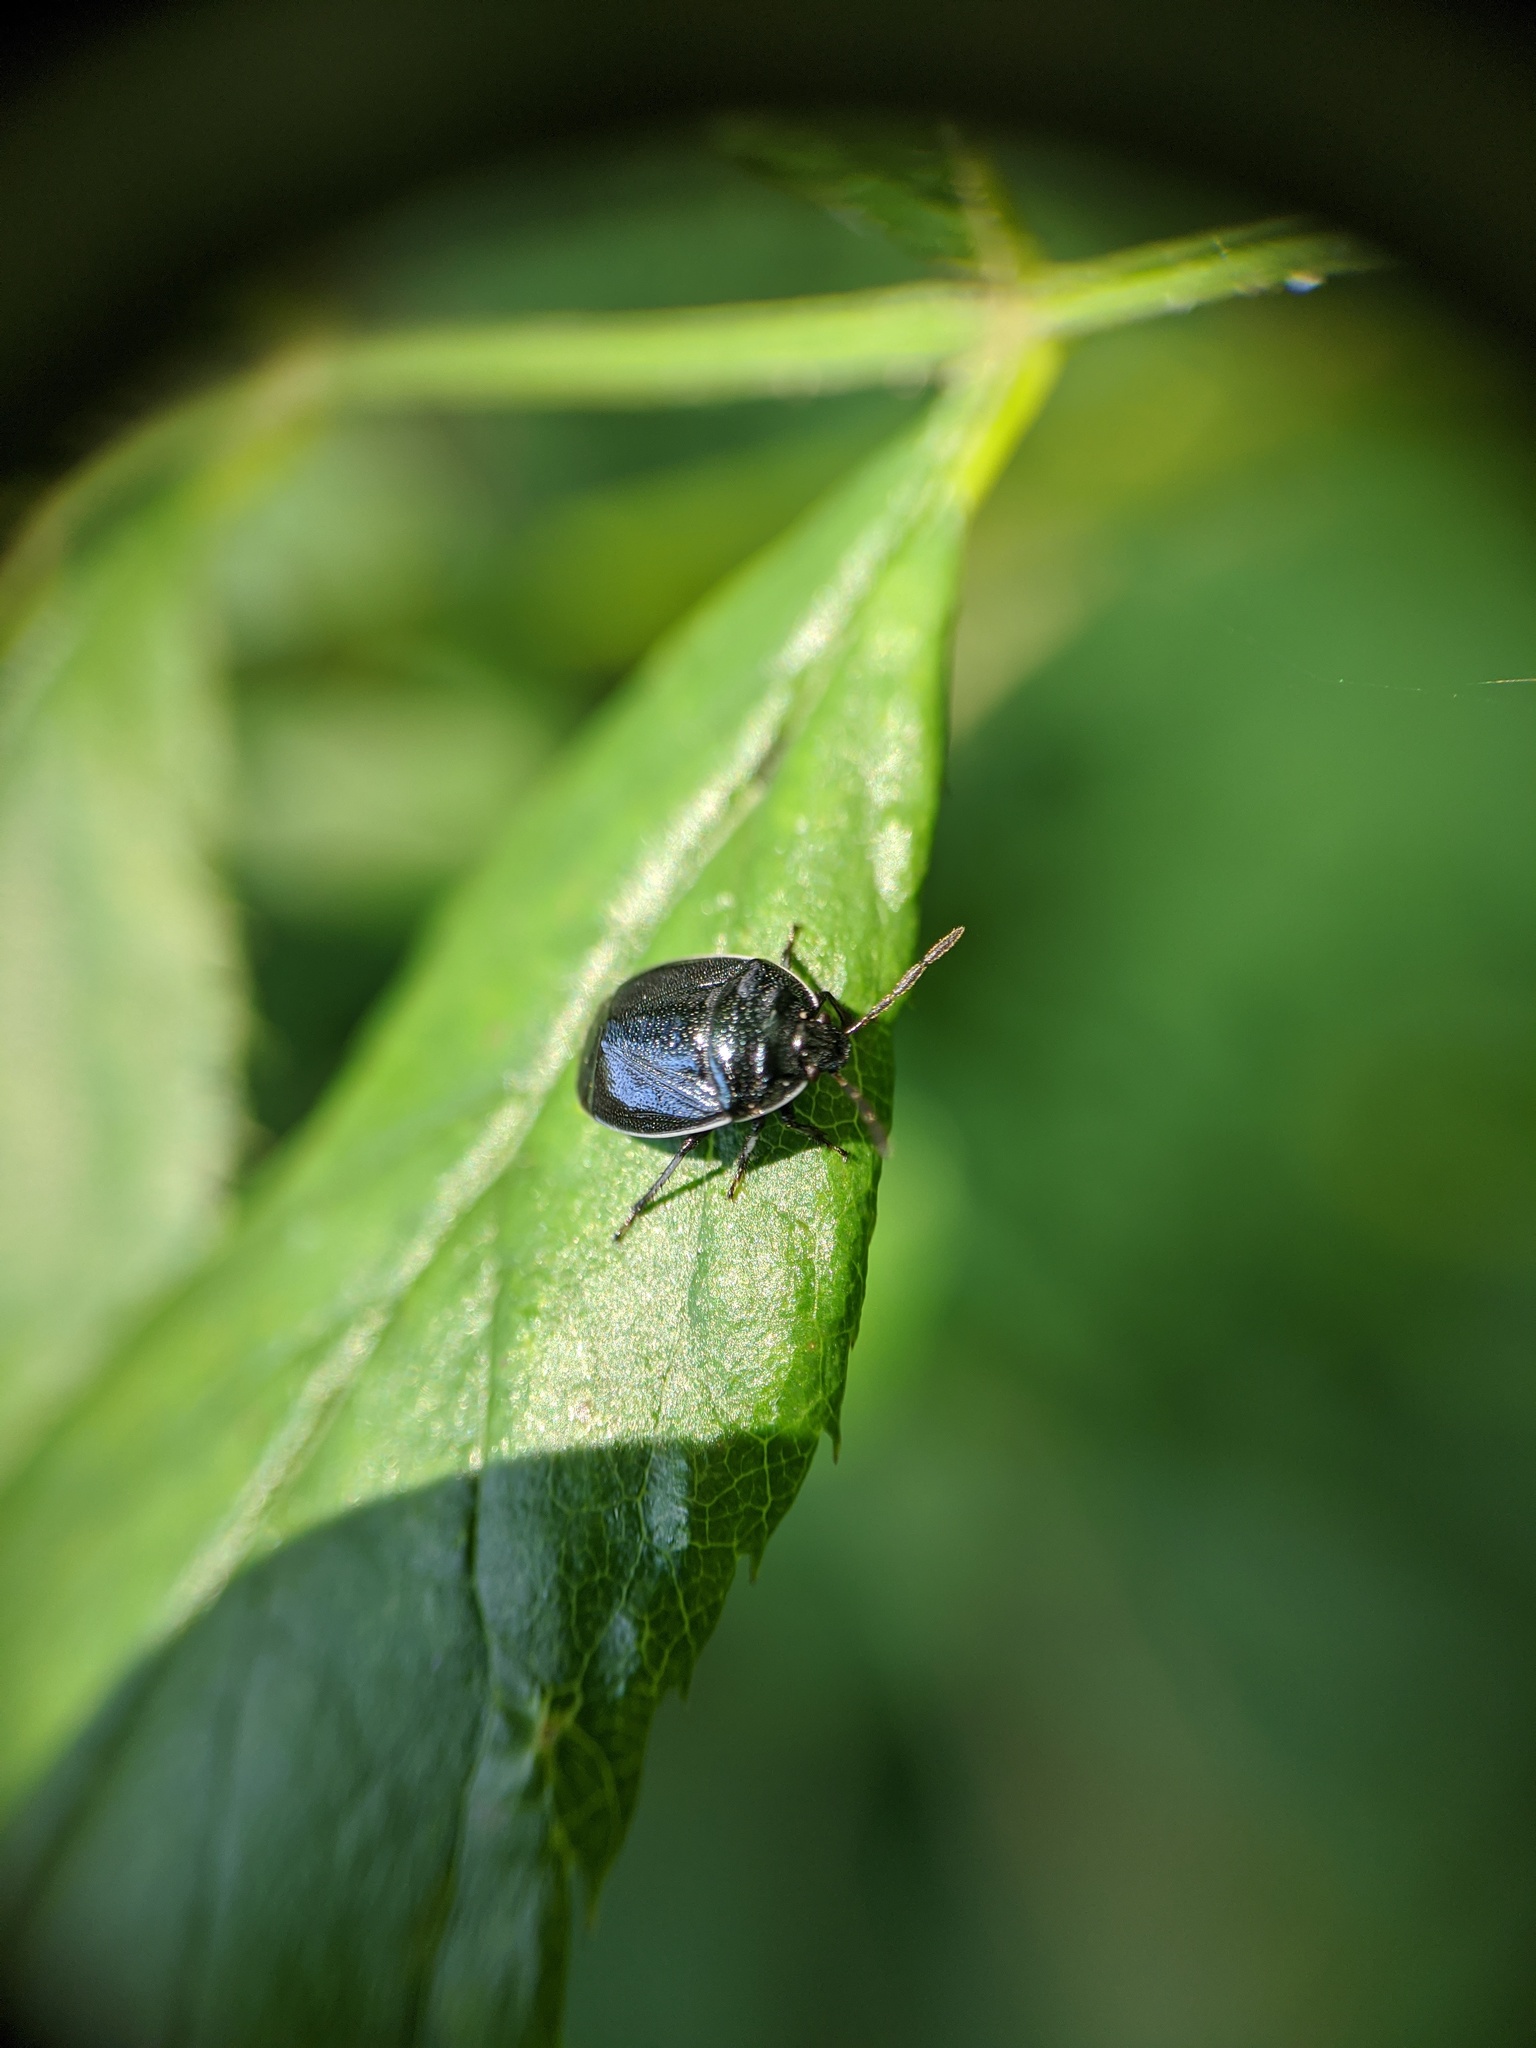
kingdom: Animalia
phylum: Arthropoda
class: Insecta
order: Hemiptera
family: Cydnidae
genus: Sehirus
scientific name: Sehirus cinctus
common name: White-margined burrower bug
